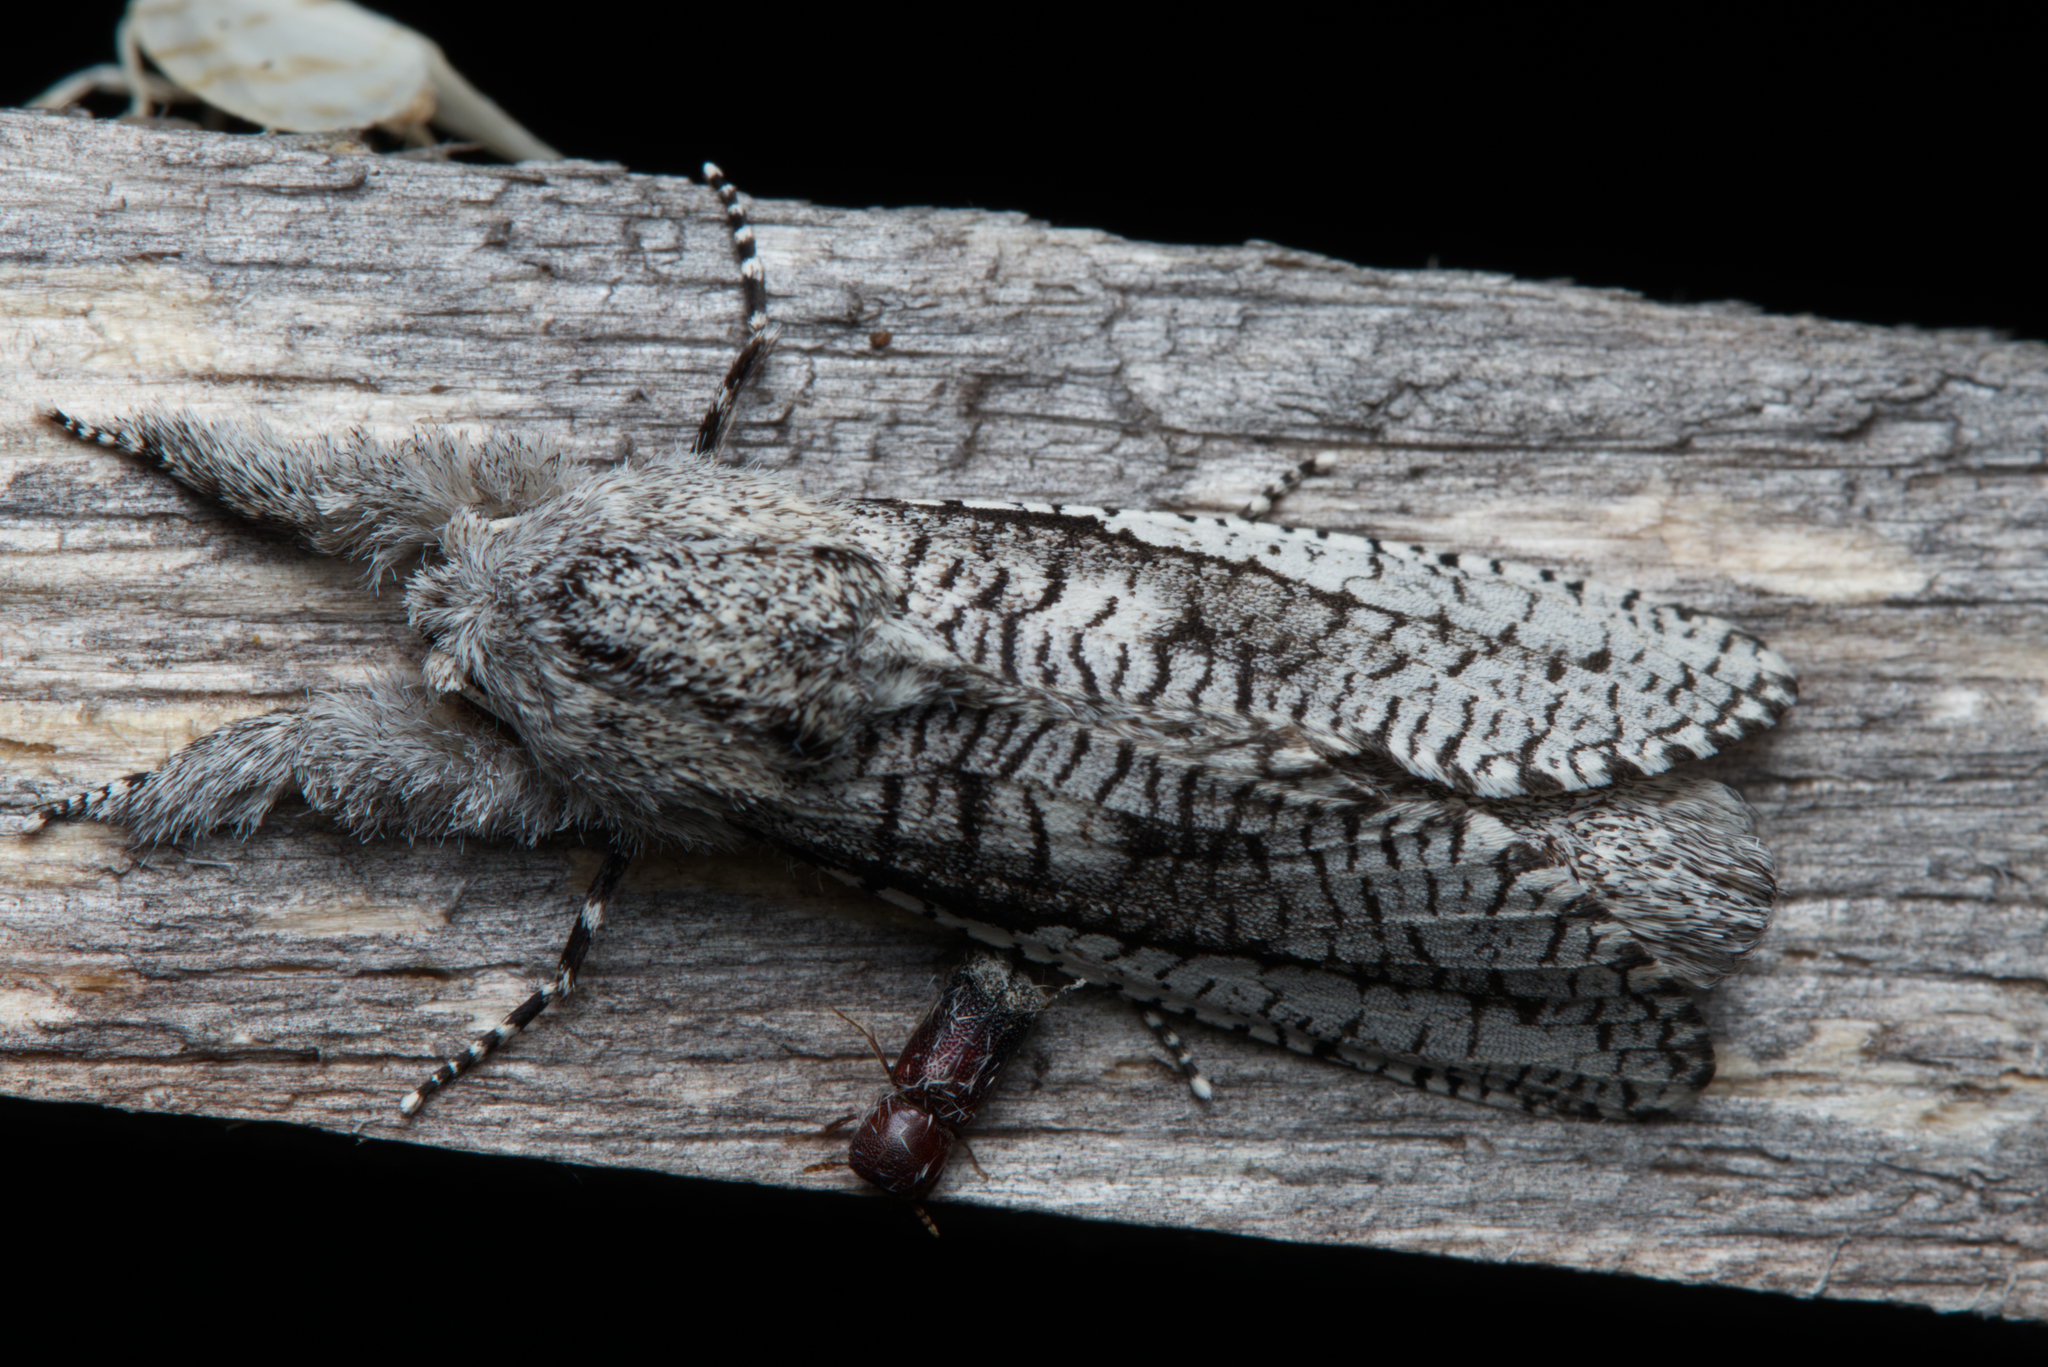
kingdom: Animalia
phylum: Arthropoda
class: Insecta
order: Lepidoptera
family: Cossidae
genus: Endoxyla
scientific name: Endoxyla secta
